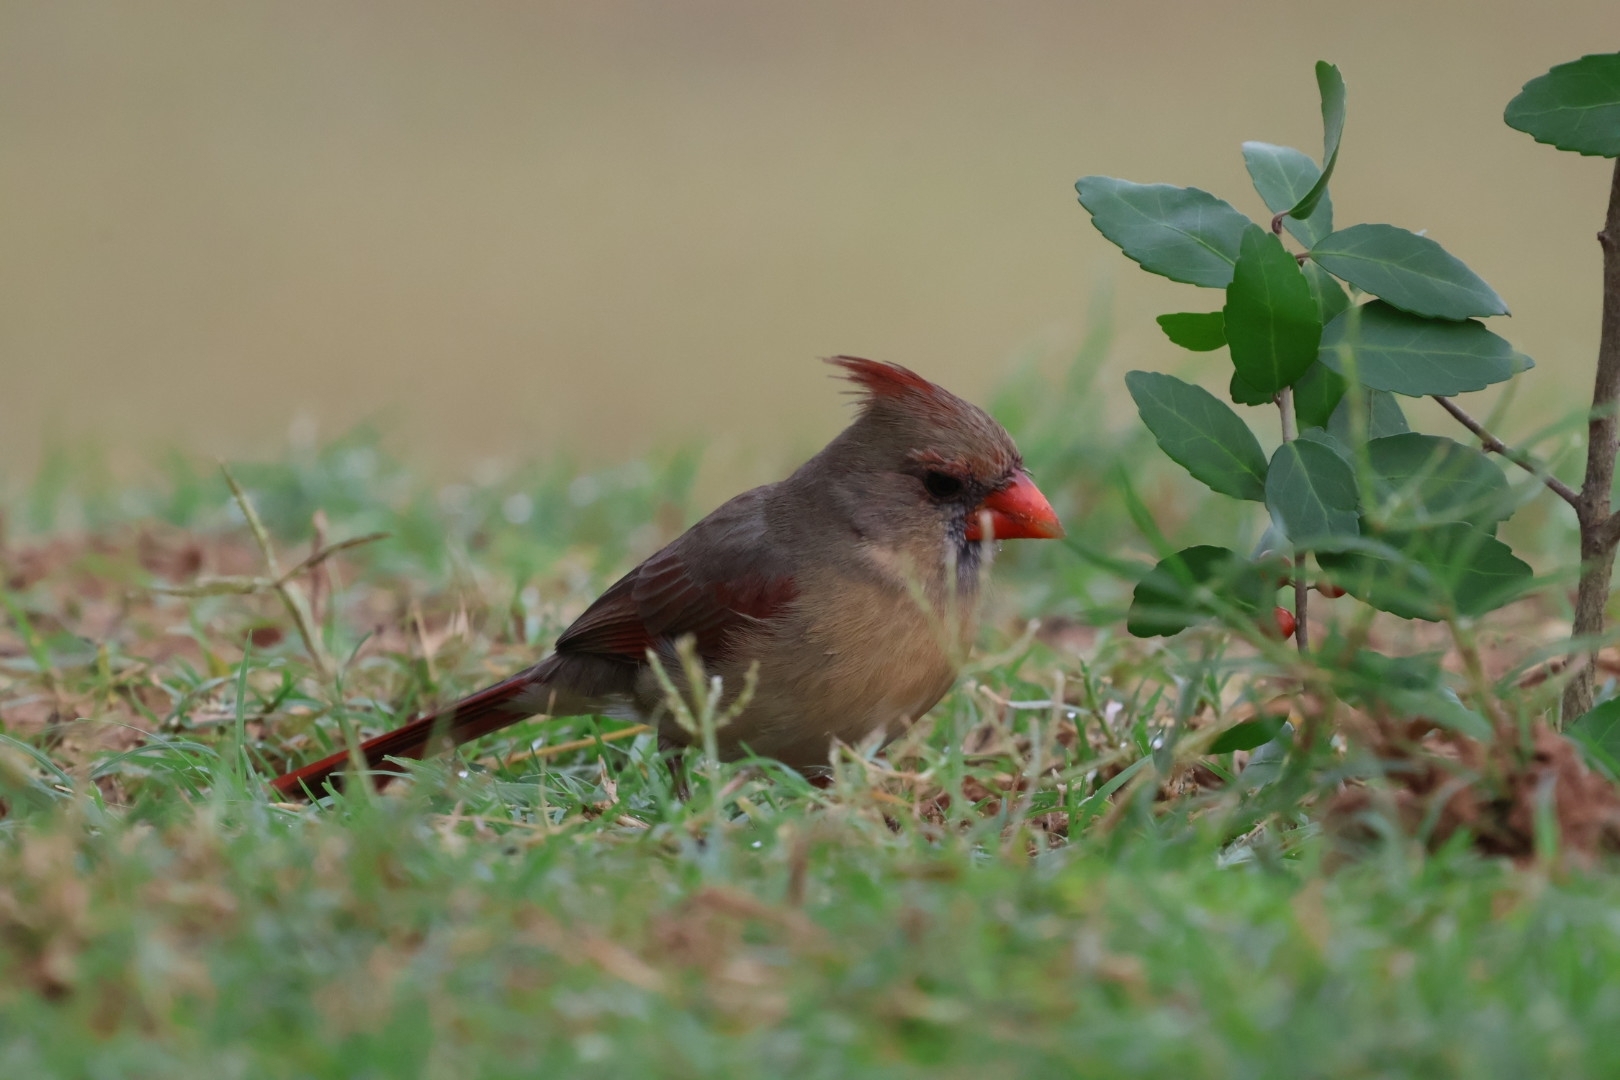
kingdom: Animalia
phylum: Chordata
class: Aves
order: Passeriformes
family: Cardinalidae
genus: Cardinalis
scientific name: Cardinalis cardinalis
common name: Northern cardinal
